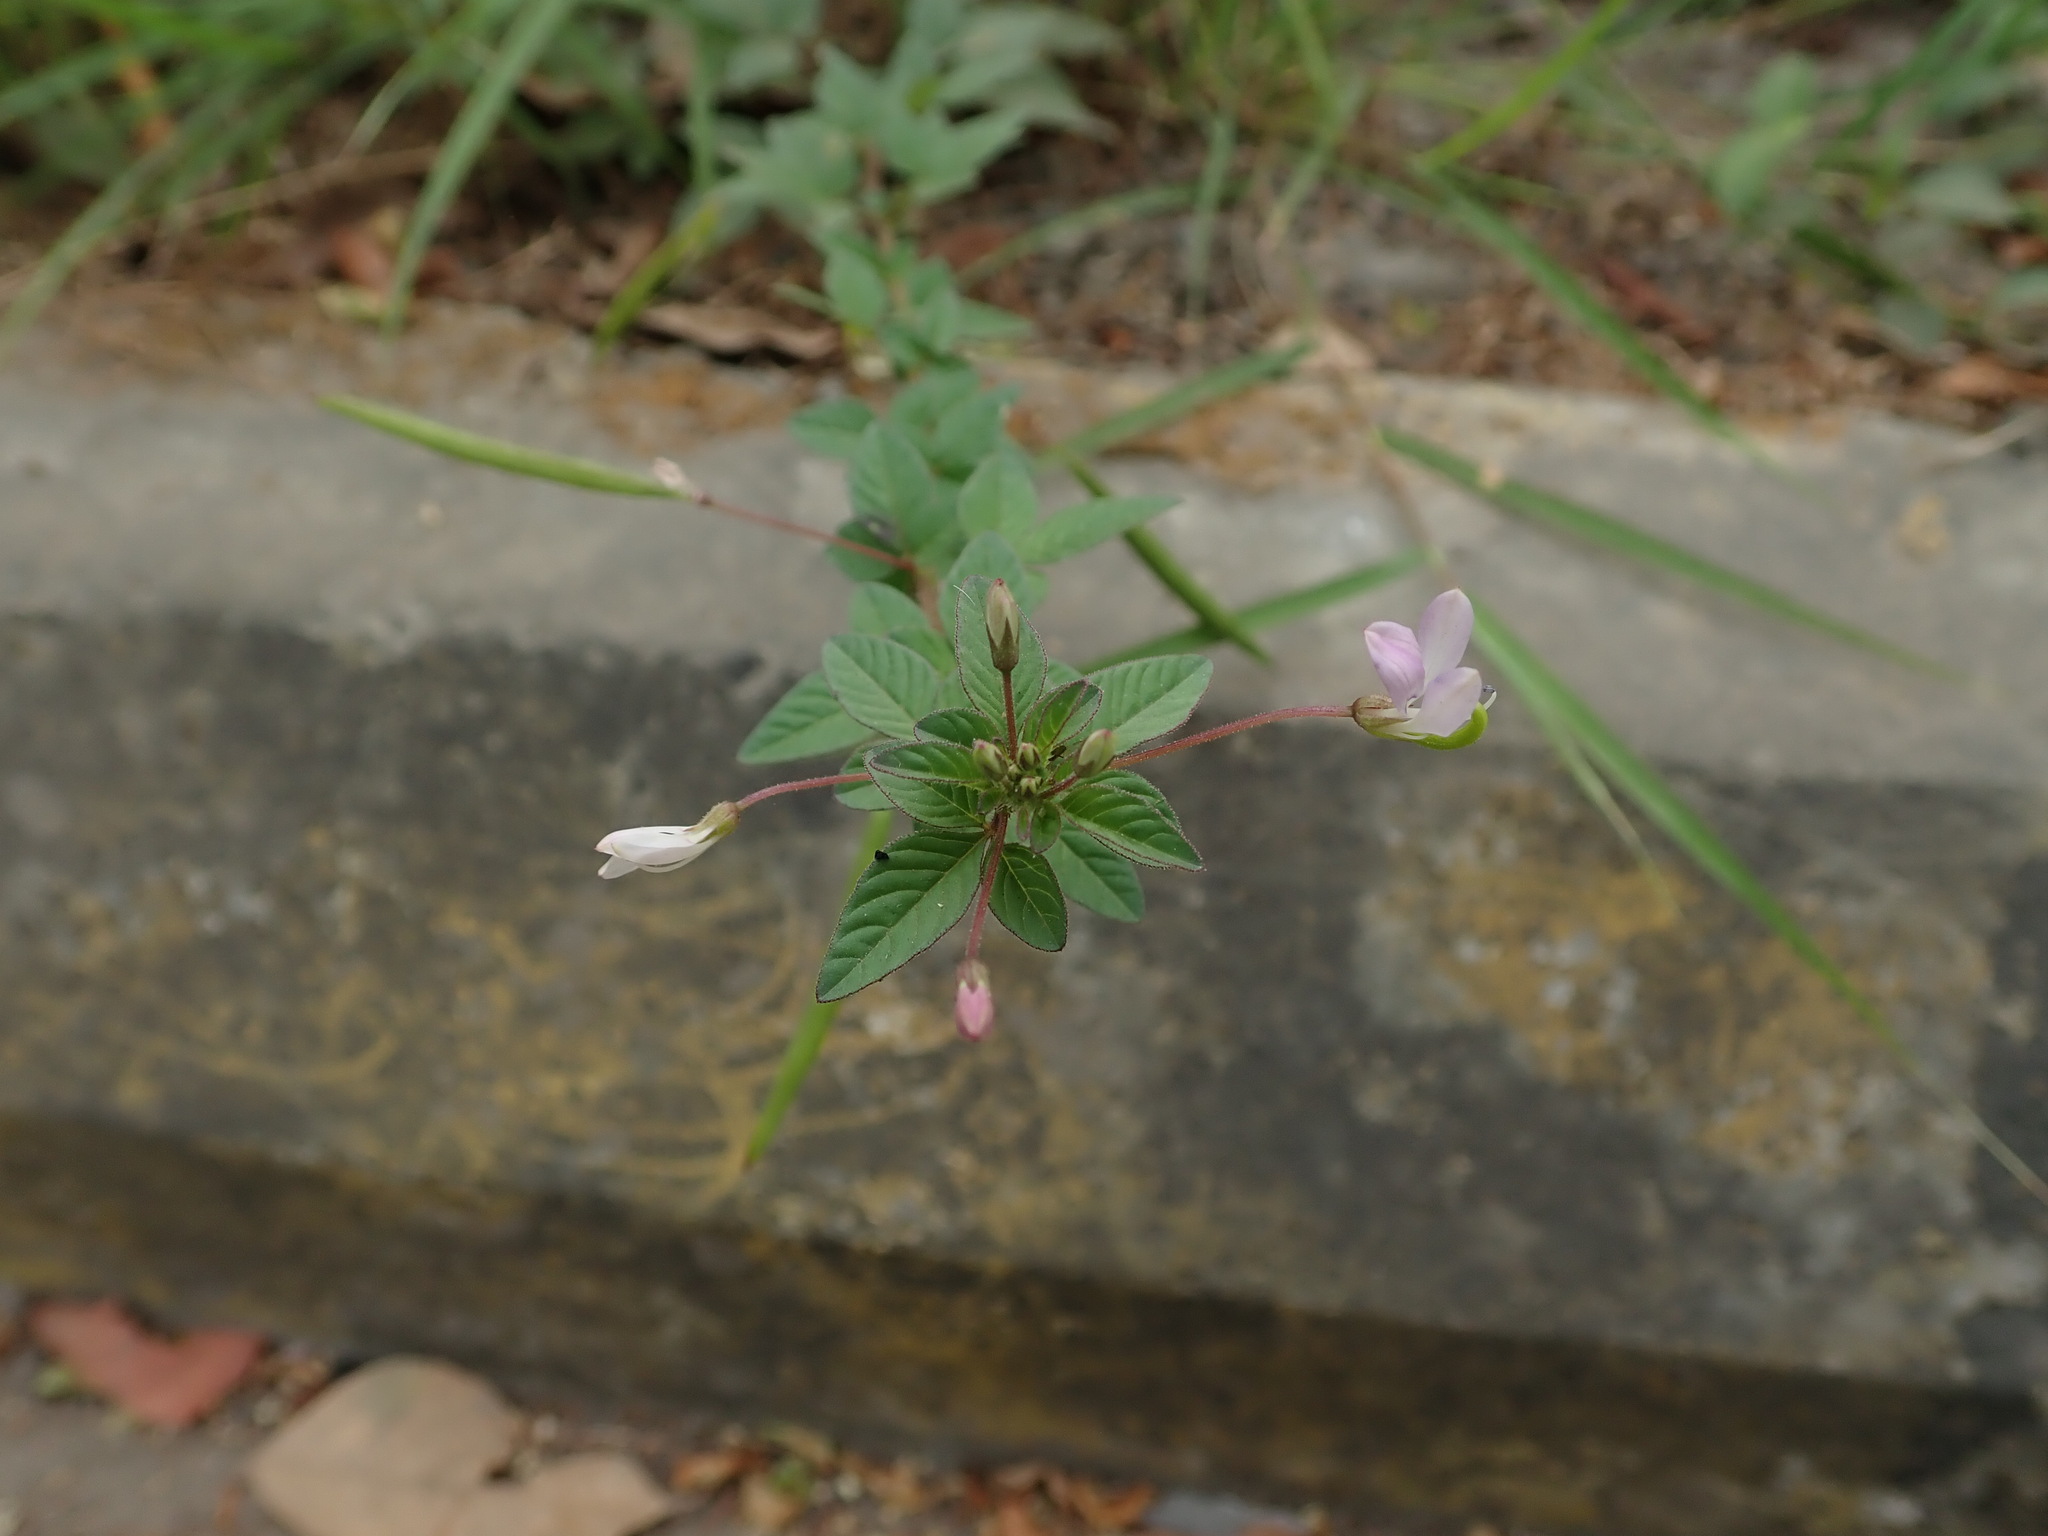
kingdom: Plantae
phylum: Tracheophyta
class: Magnoliopsida
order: Brassicales
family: Cleomaceae
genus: Sieruela
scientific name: Sieruela rutidosperma
